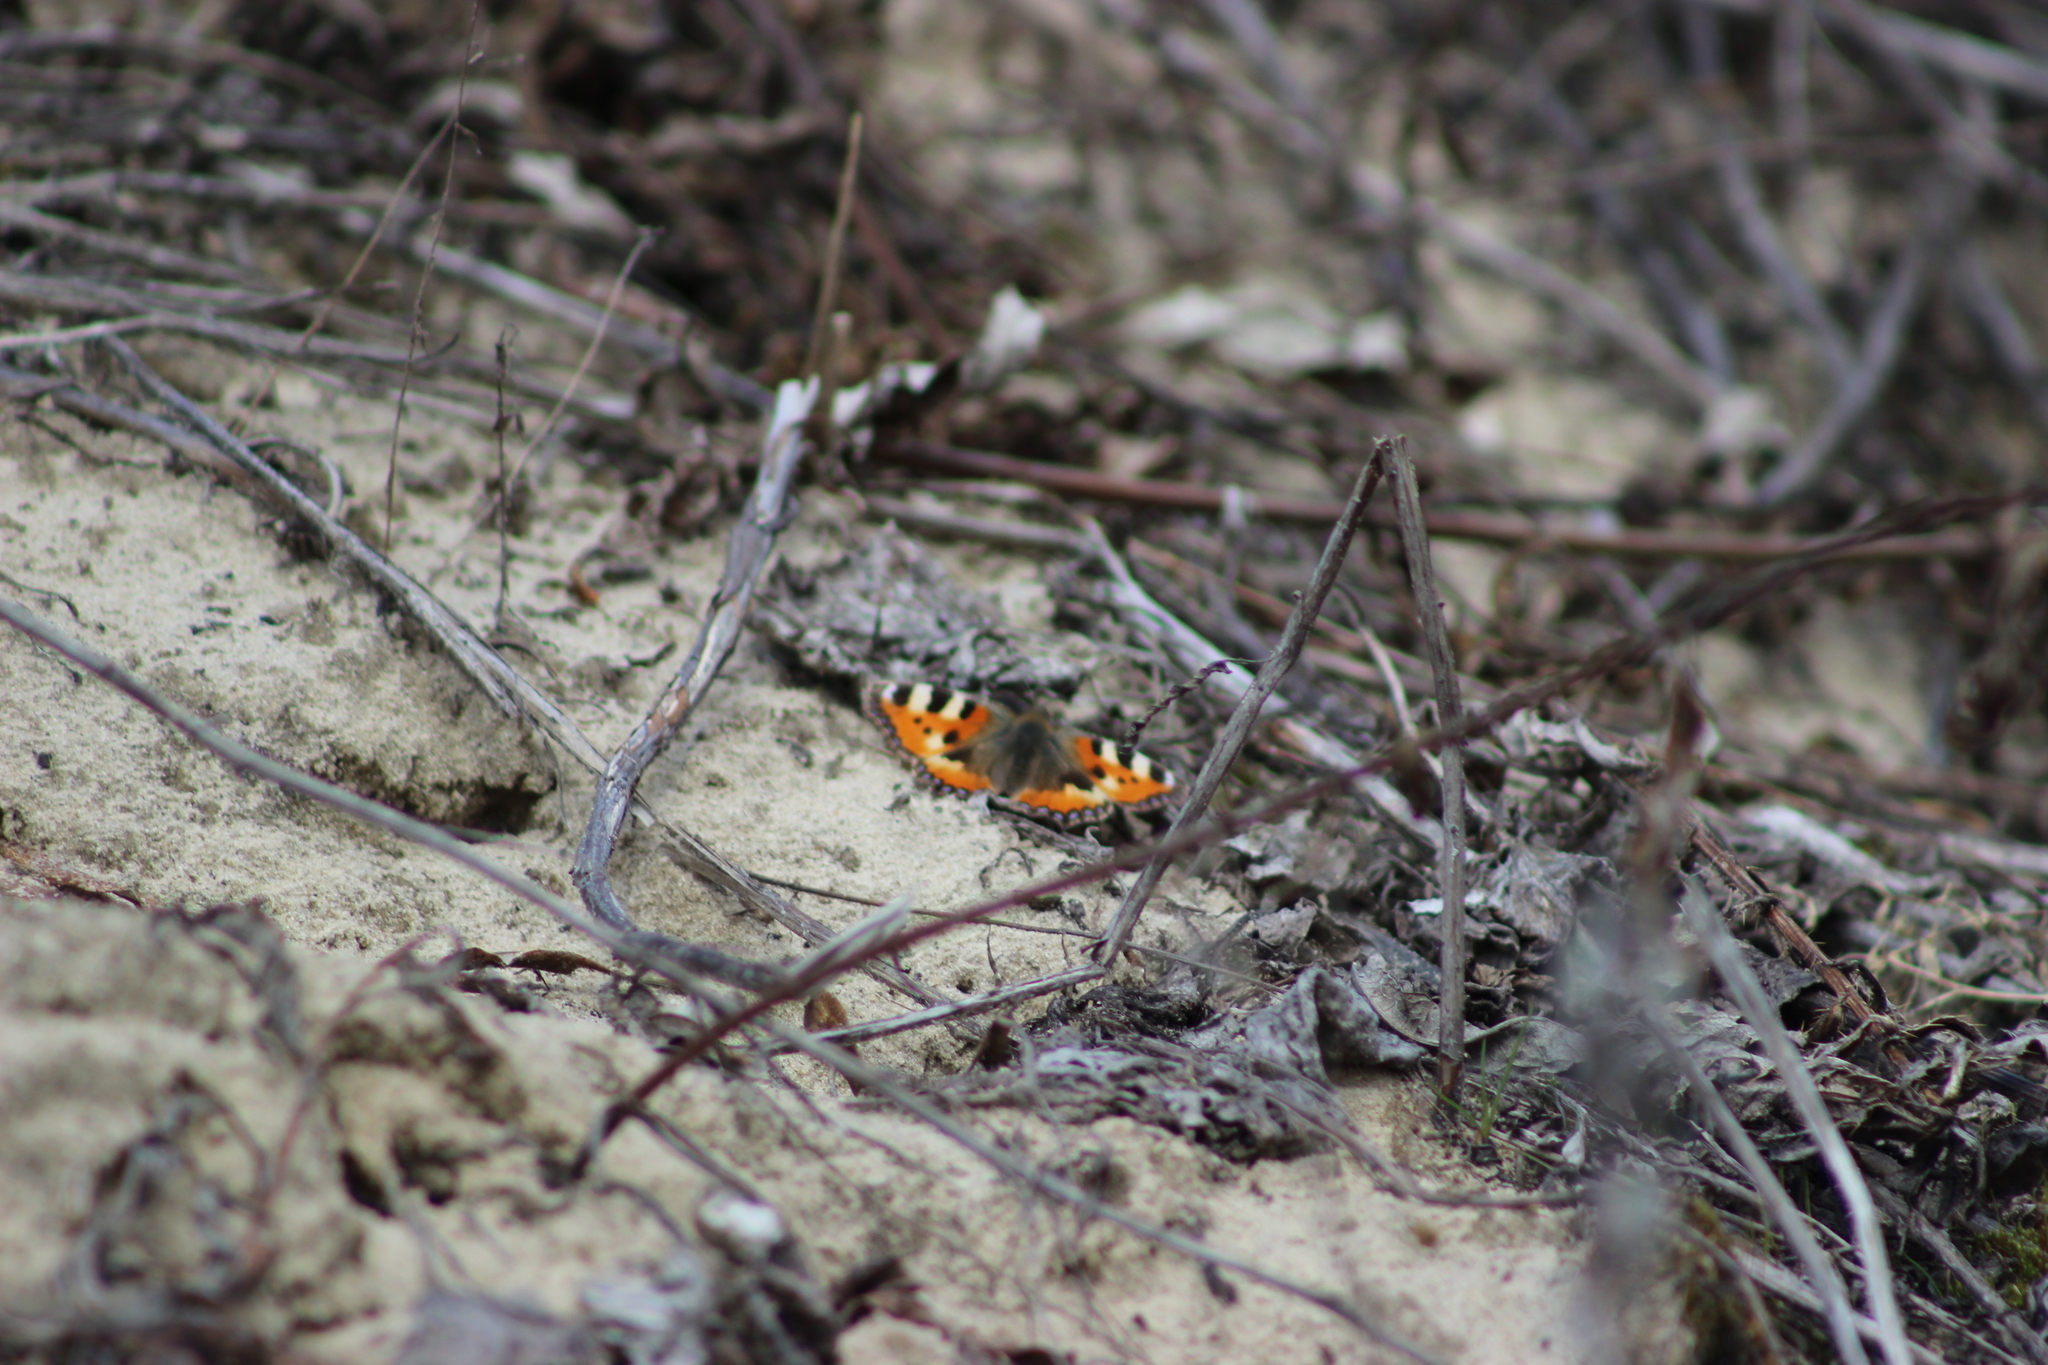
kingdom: Animalia
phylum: Arthropoda
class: Insecta
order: Lepidoptera
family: Nymphalidae
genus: Aglais
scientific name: Aglais urticae
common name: Small tortoiseshell
